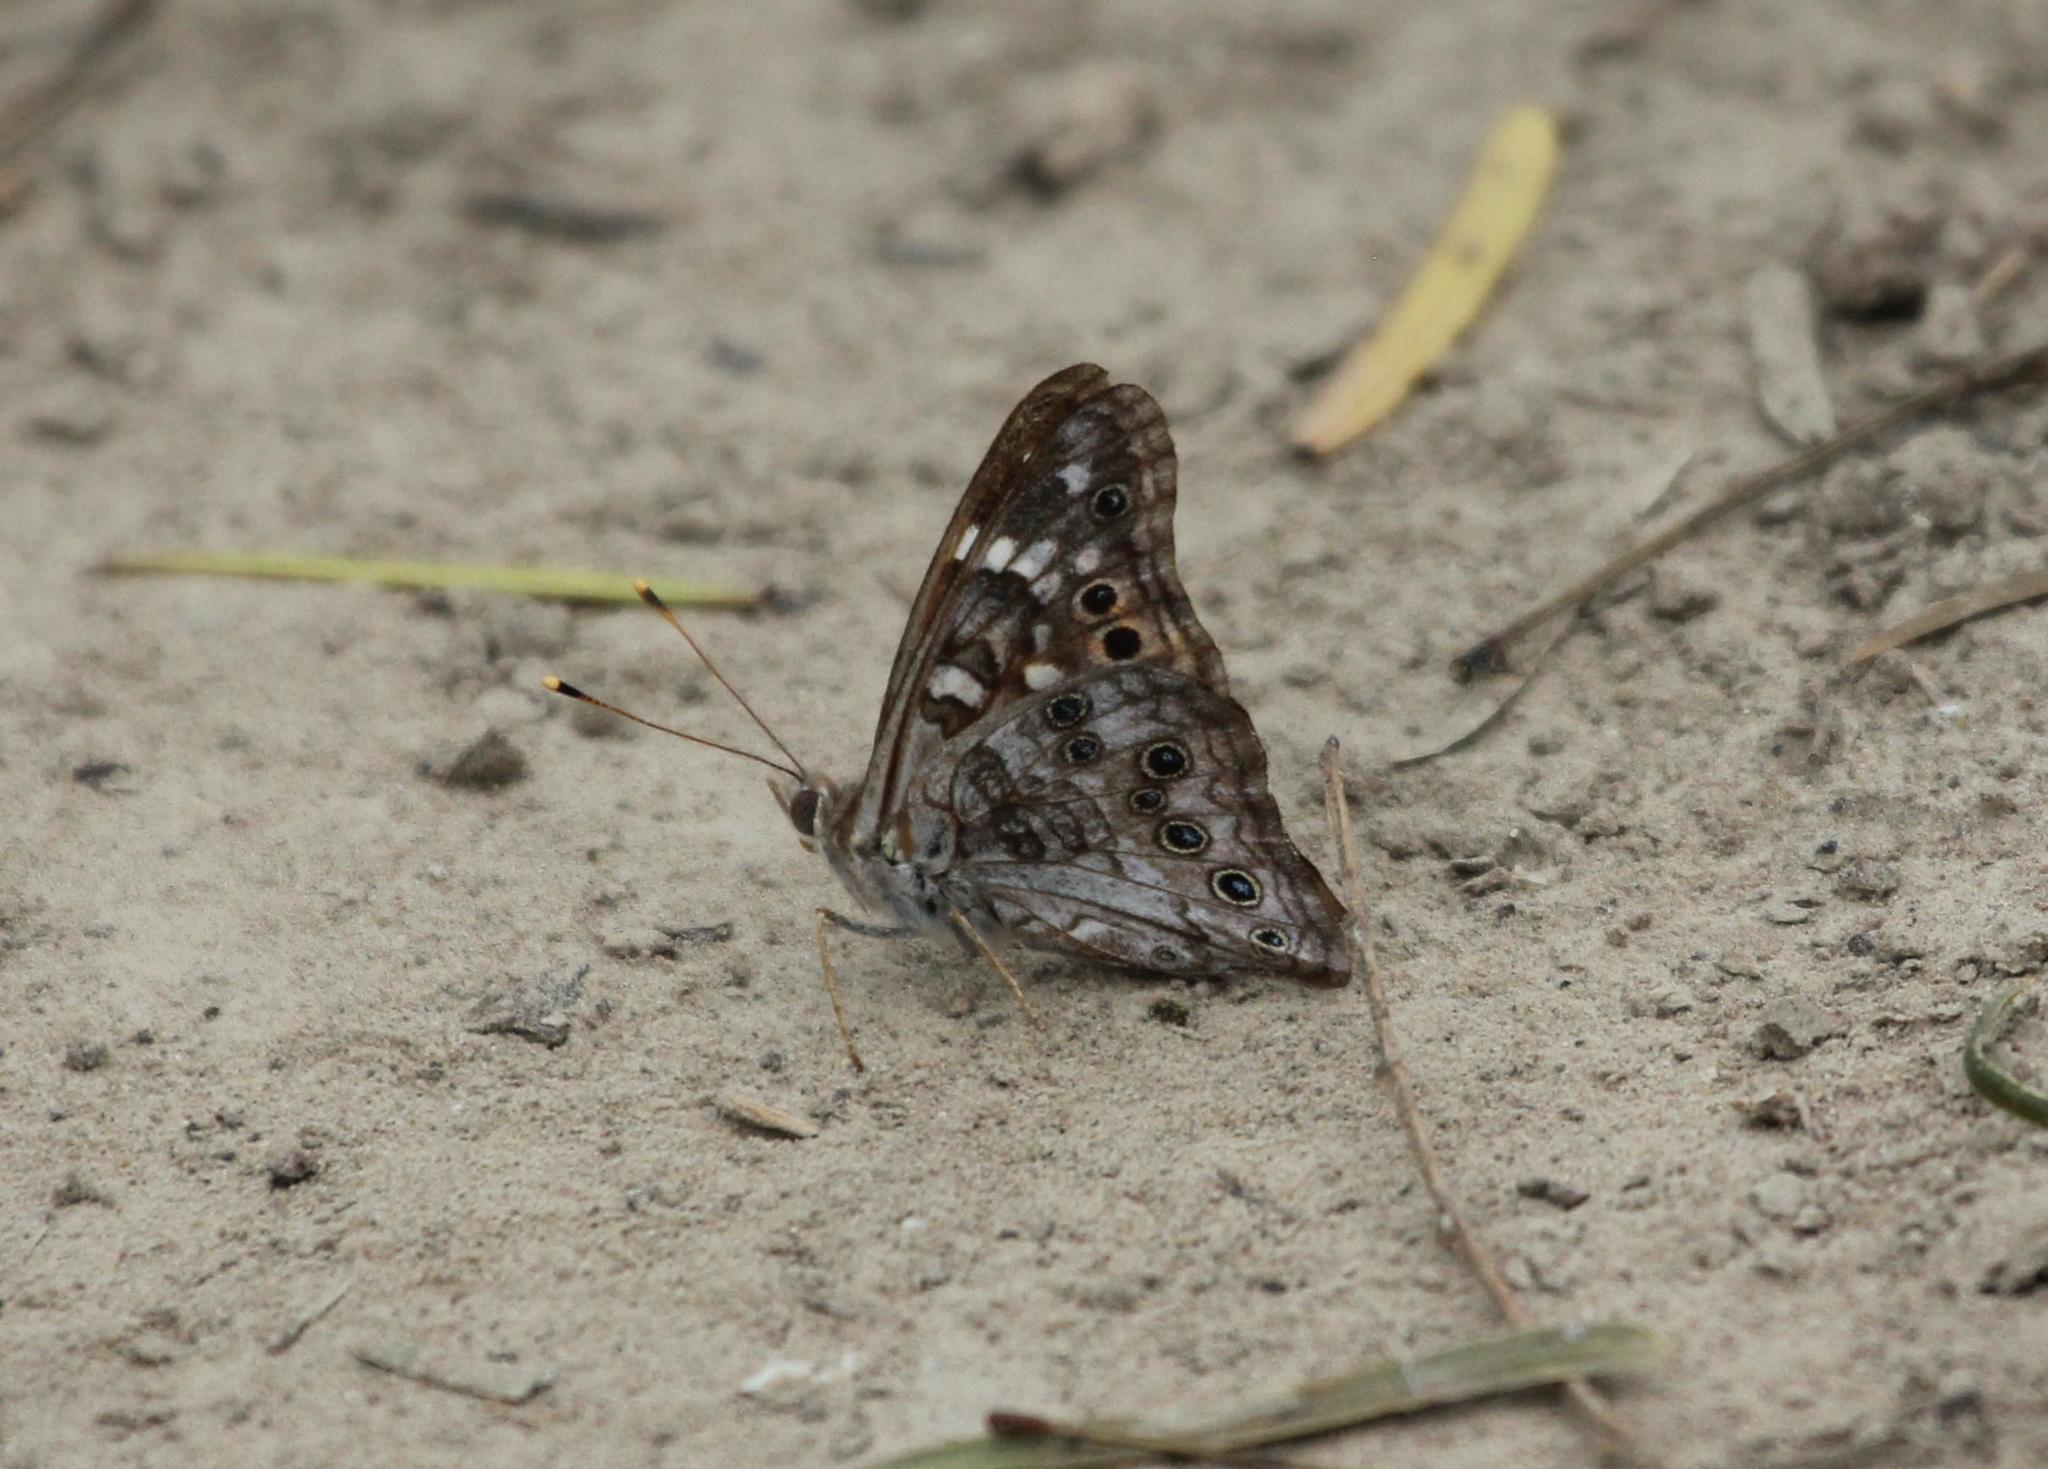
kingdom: Animalia
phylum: Arthropoda
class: Insecta
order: Lepidoptera
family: Nymphalidae
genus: Asterocampa
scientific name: Asterocampa leilia
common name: Empress leilia
